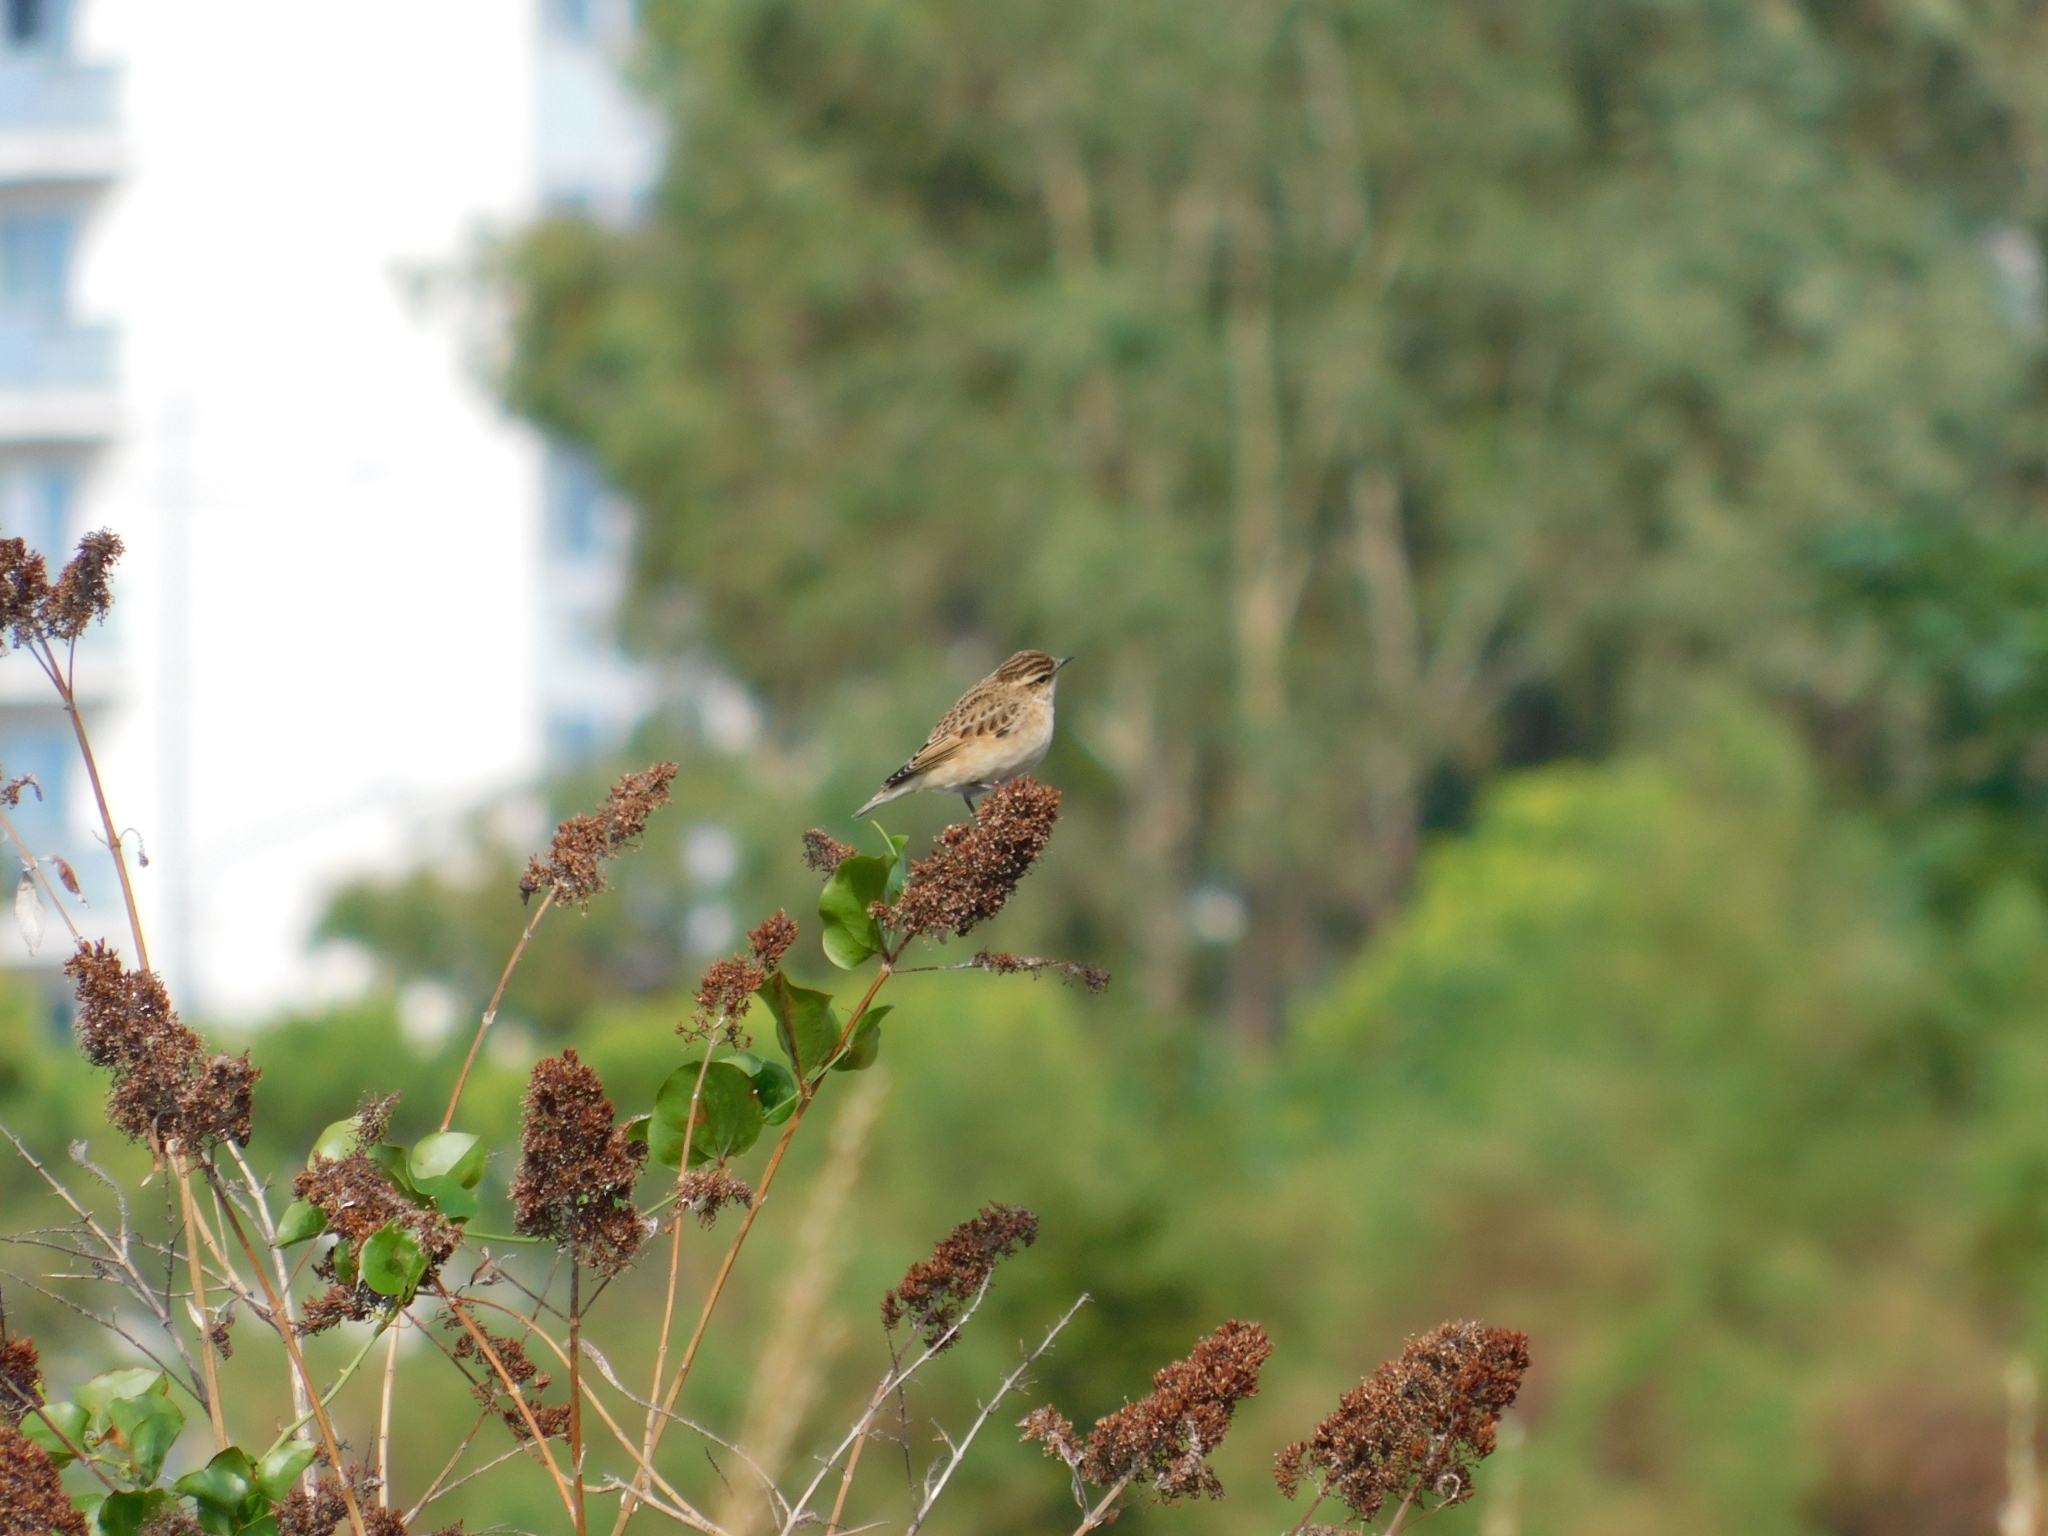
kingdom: Animalia
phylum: Chordata
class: Aves
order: Passeriformes
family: Muscicapidae
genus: Saxicola
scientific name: Saxicola rubetra
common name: Whinchat
